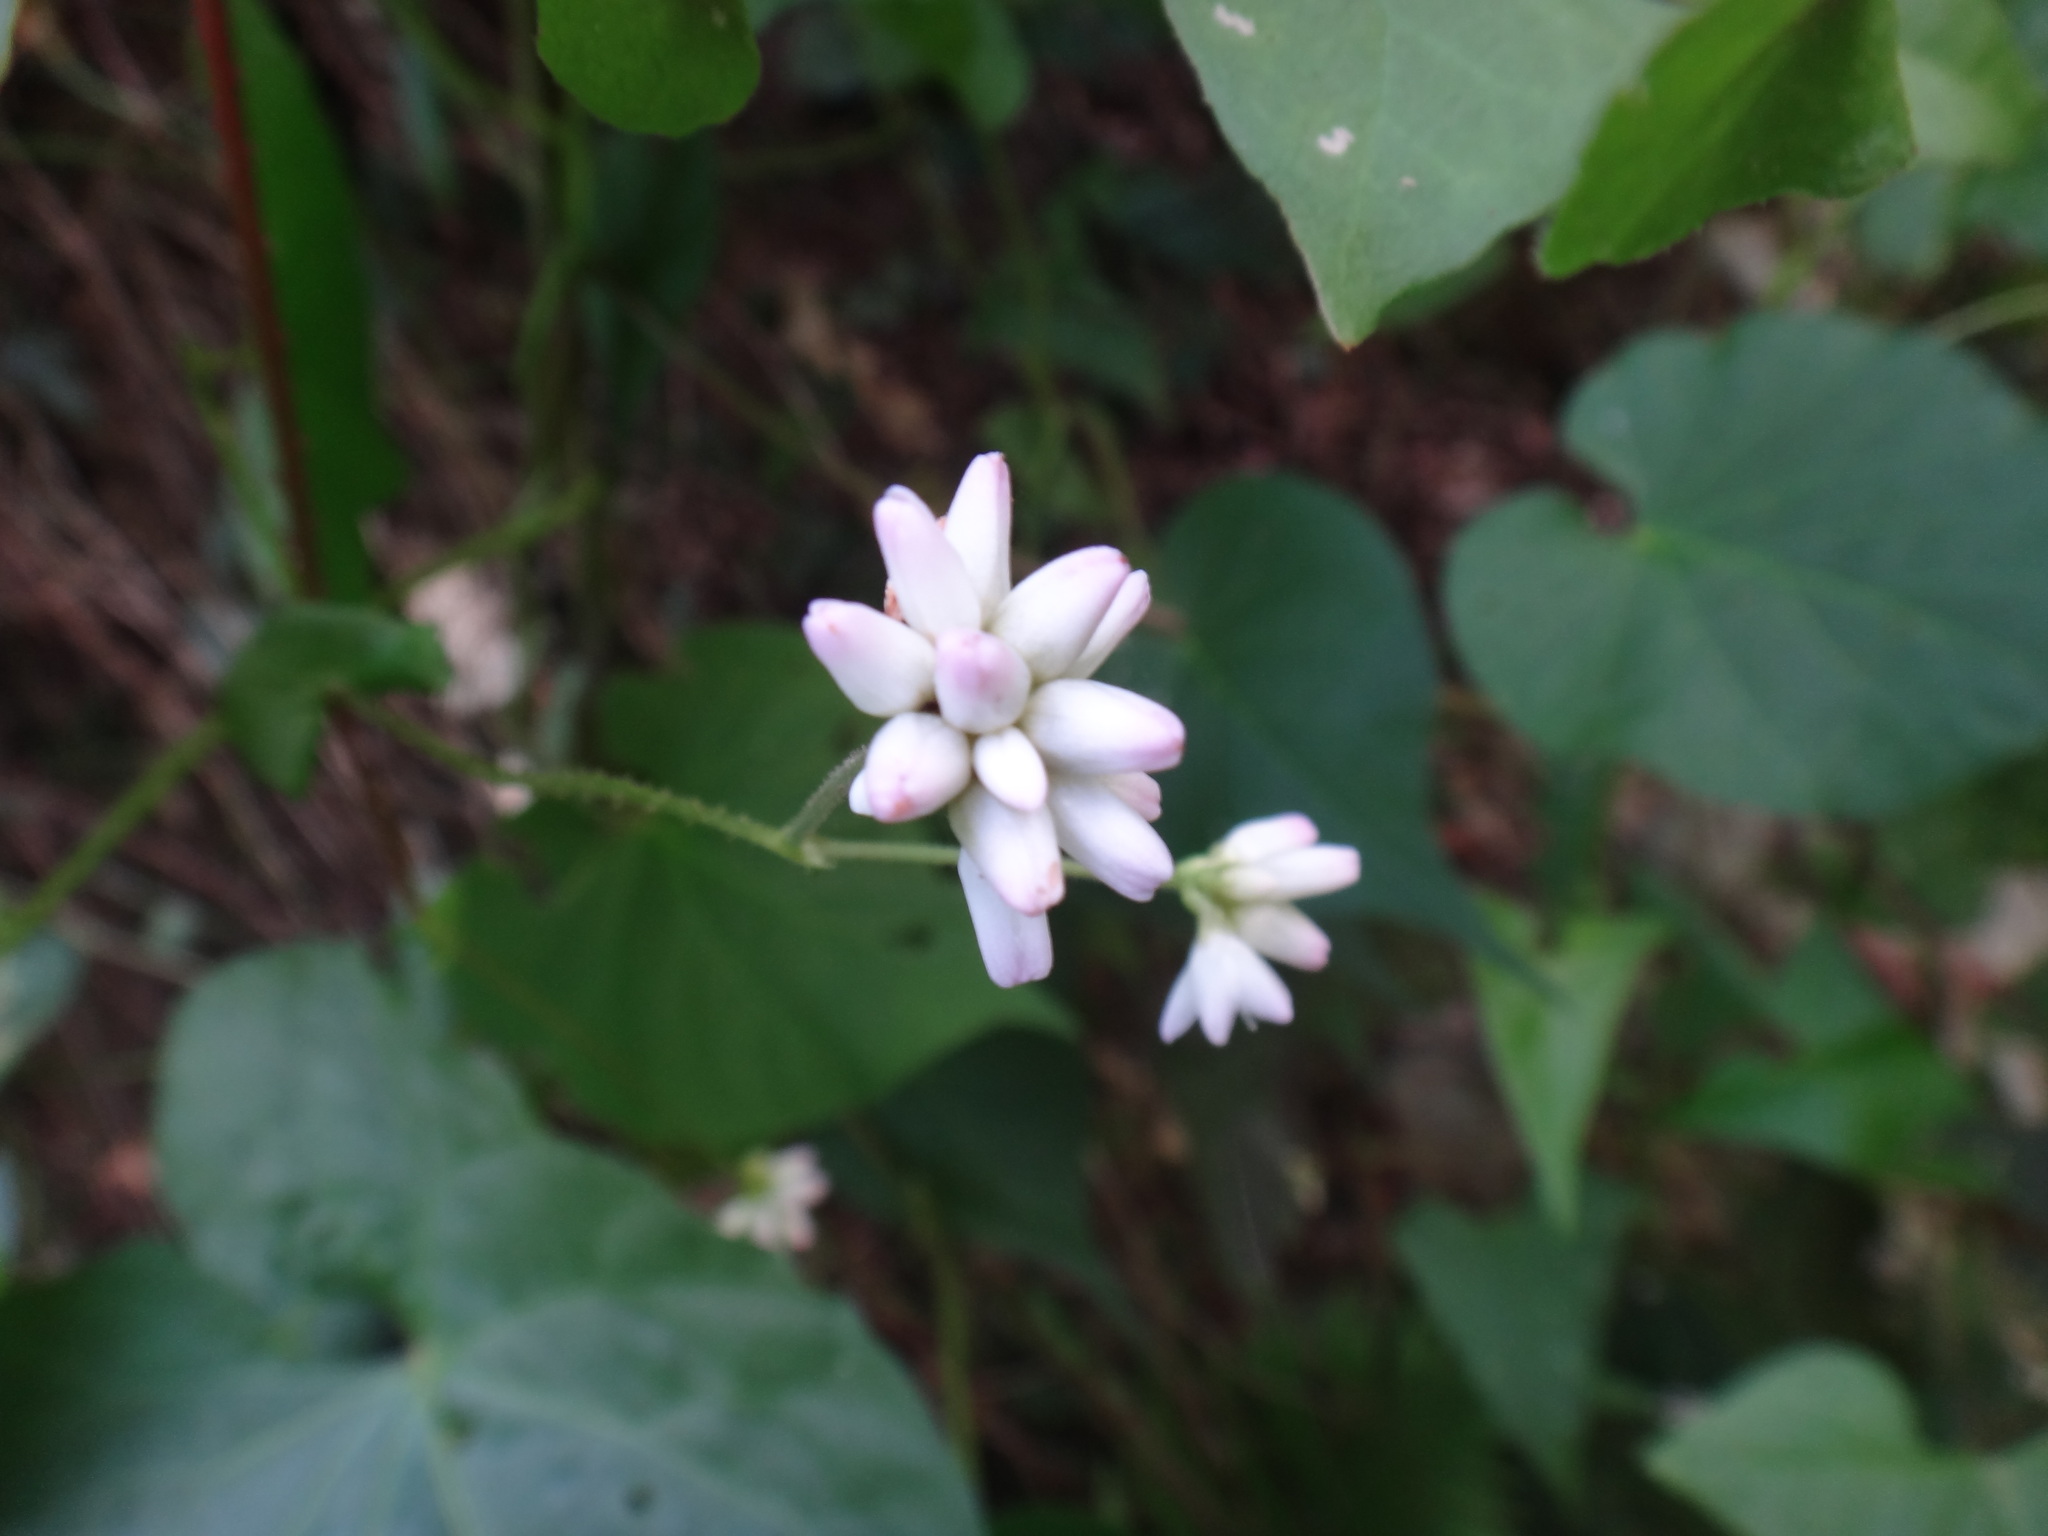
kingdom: Plantae
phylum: Tracheophyta
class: Magnoliopsida
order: Caryophyllales
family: Polygonaceae
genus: Persicaria
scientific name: Persicaria senticosa
